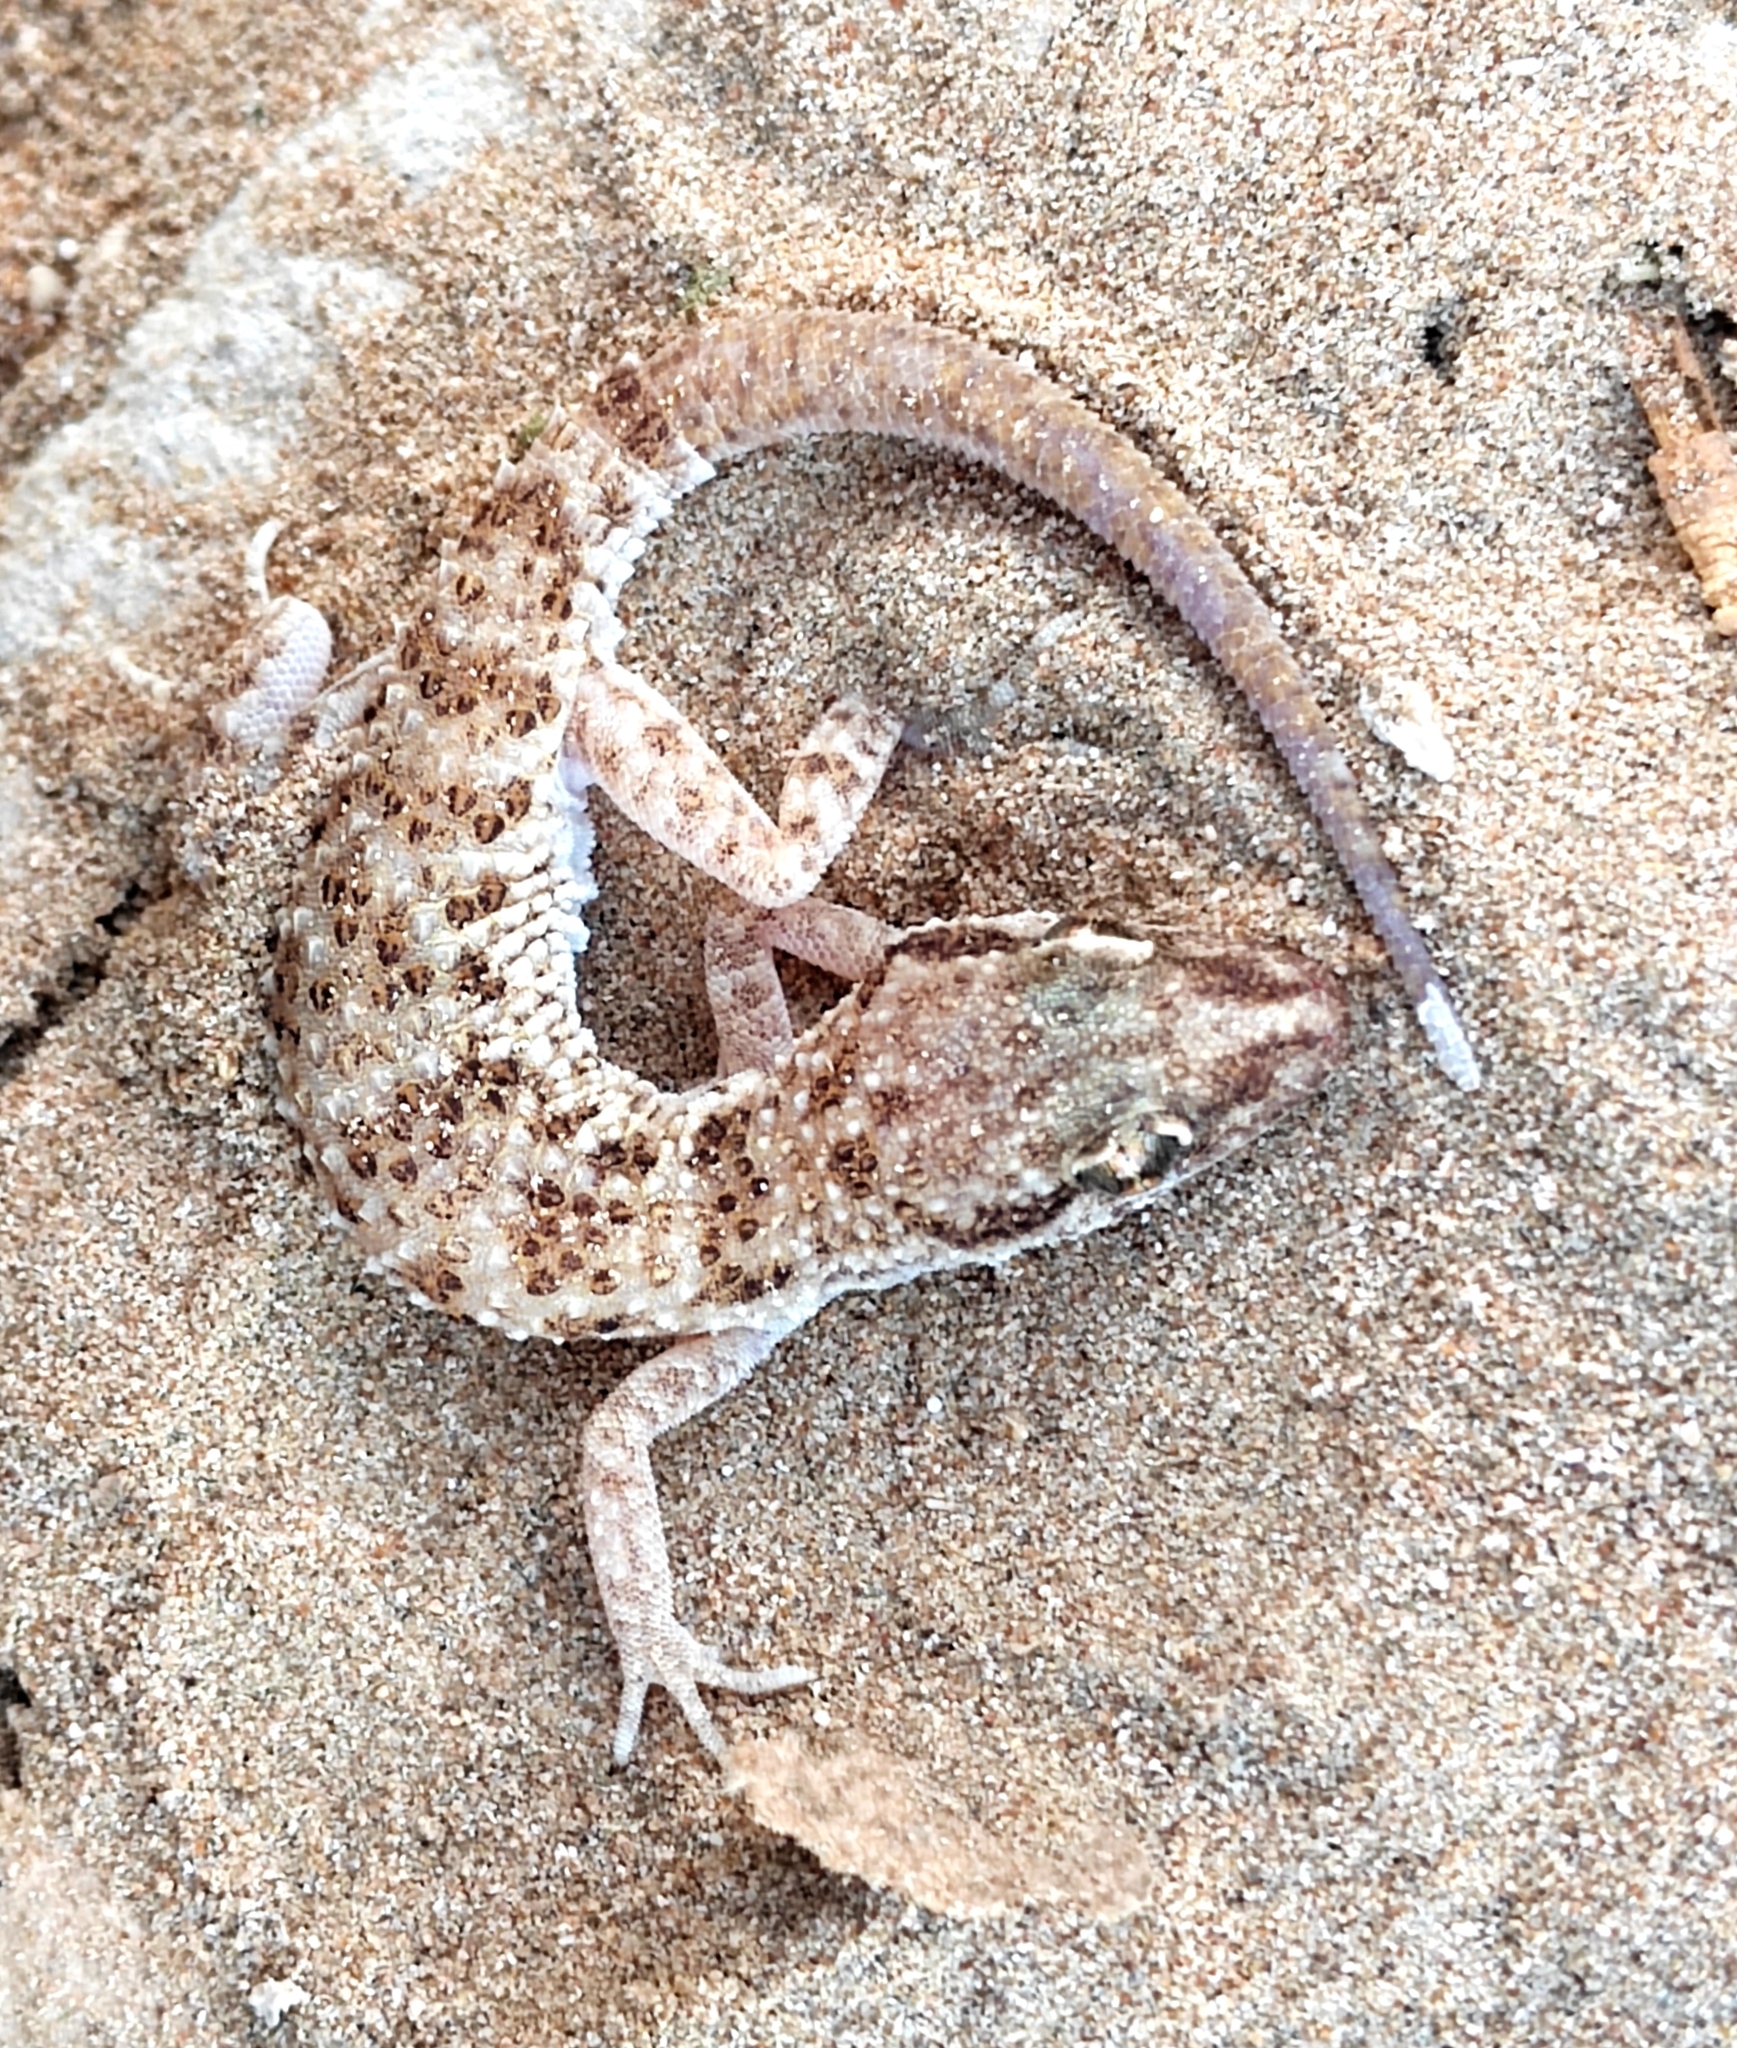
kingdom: Animalia
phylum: Chordata
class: Squamata
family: Gekkonidae
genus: Bunopus
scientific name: Bunopus tuberculatus
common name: Southern tuberculated gecko
